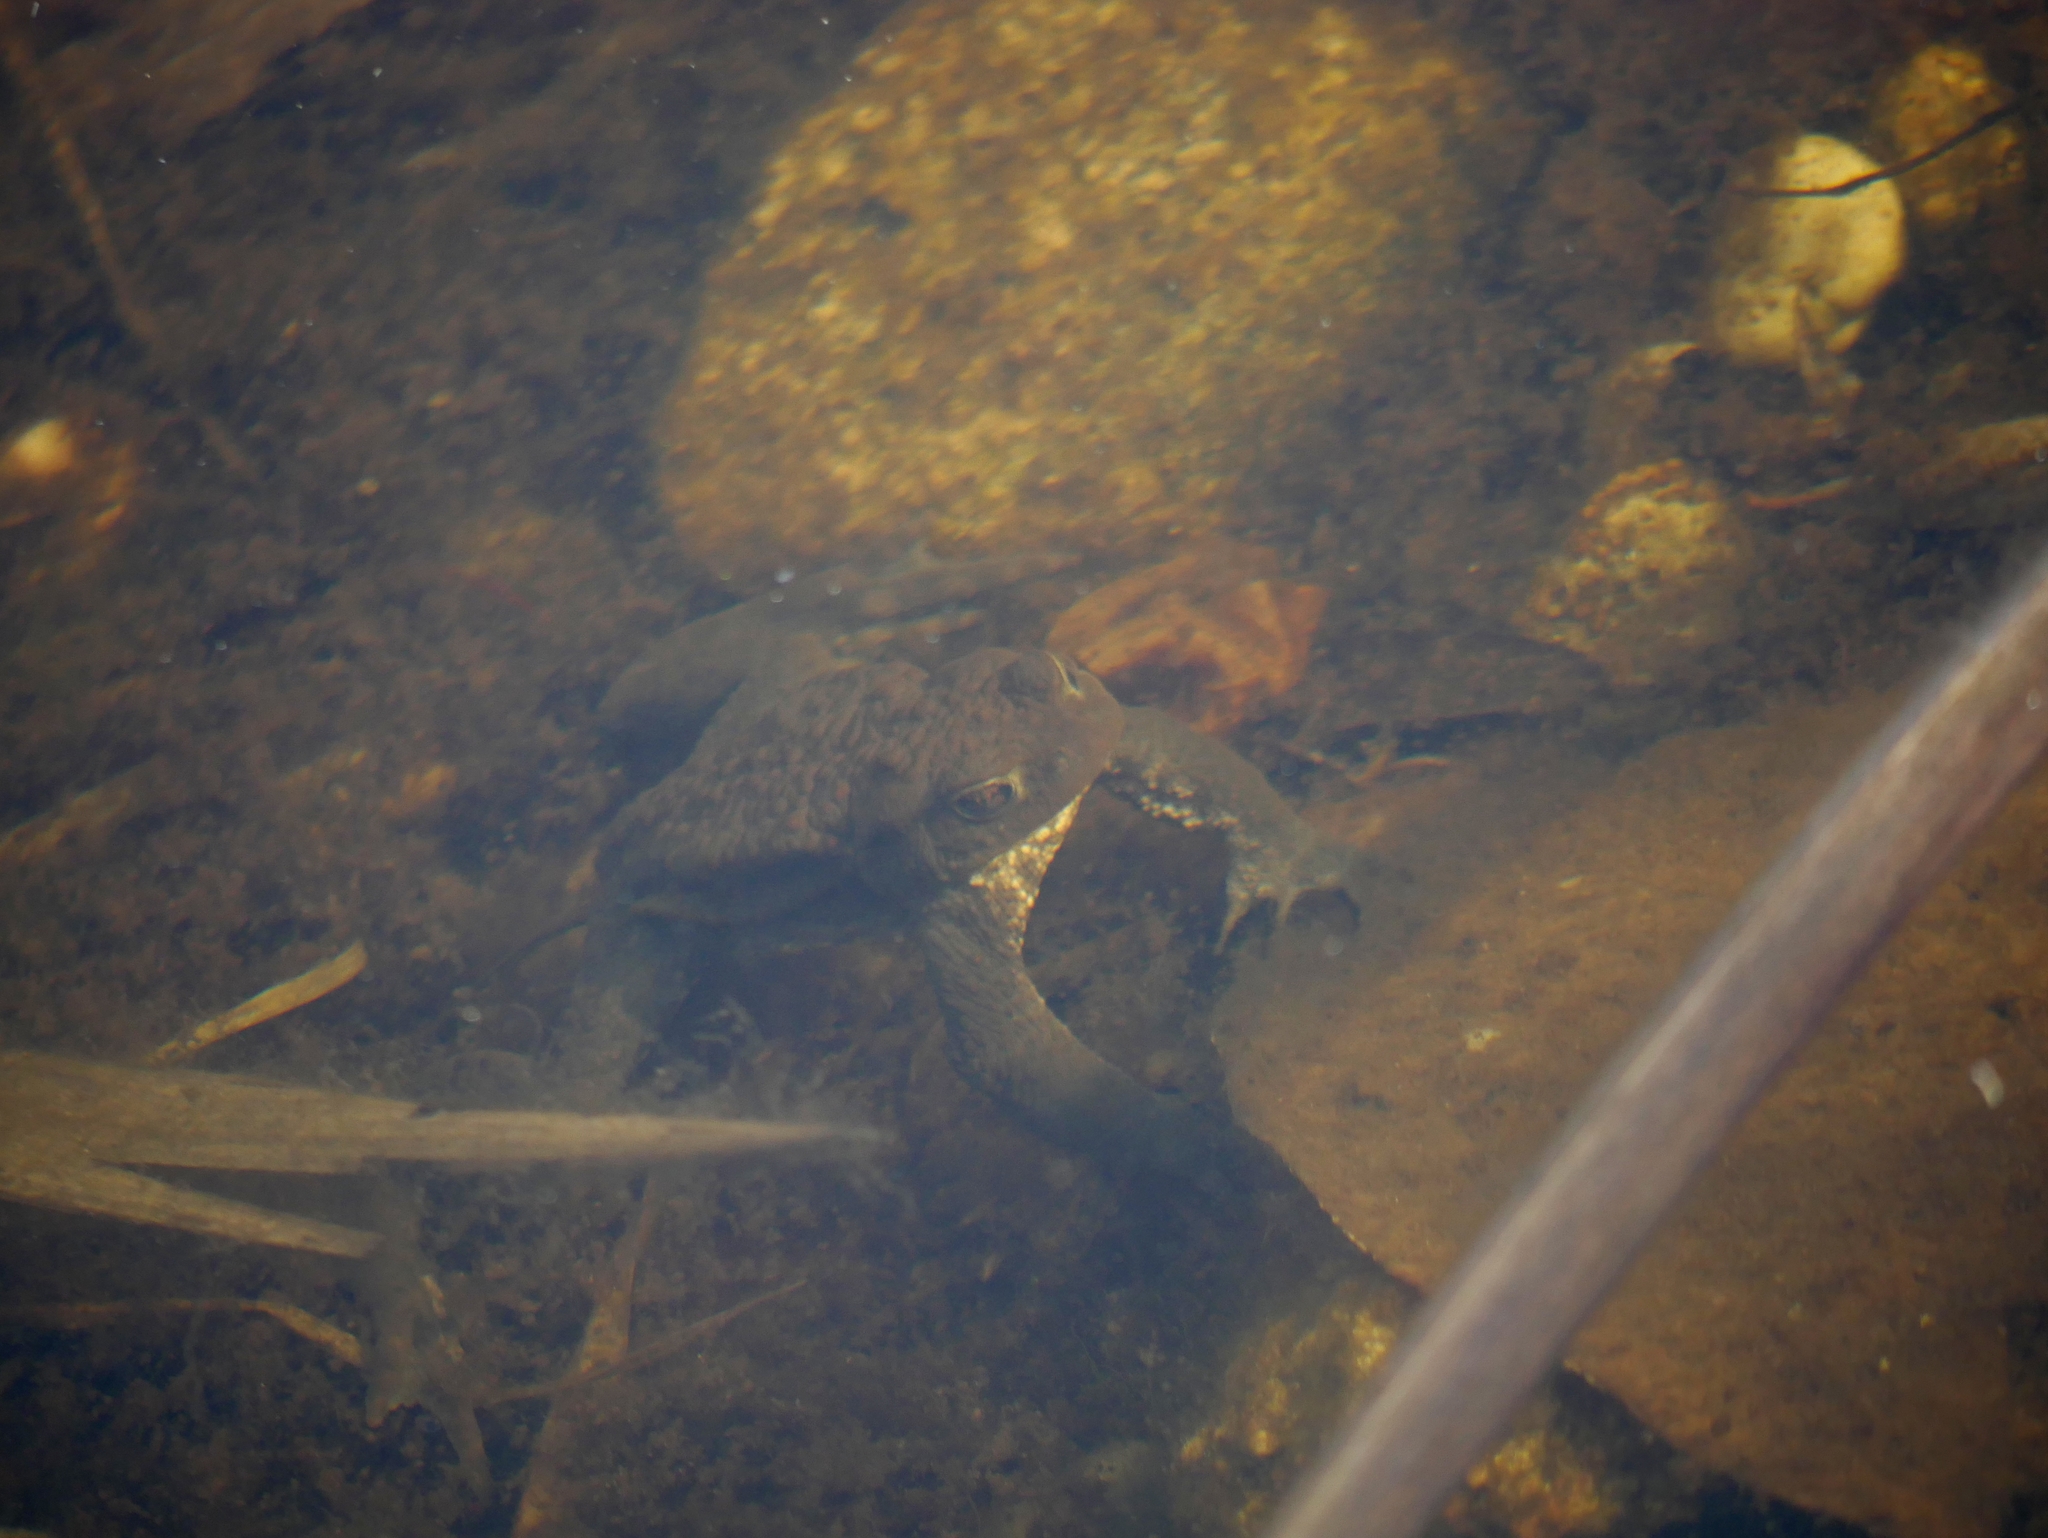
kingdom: Animalia
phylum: Chordata
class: Amphibia
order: Anura
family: Bufonidae
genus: Bufo
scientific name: Bufo bufo
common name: Common toad
